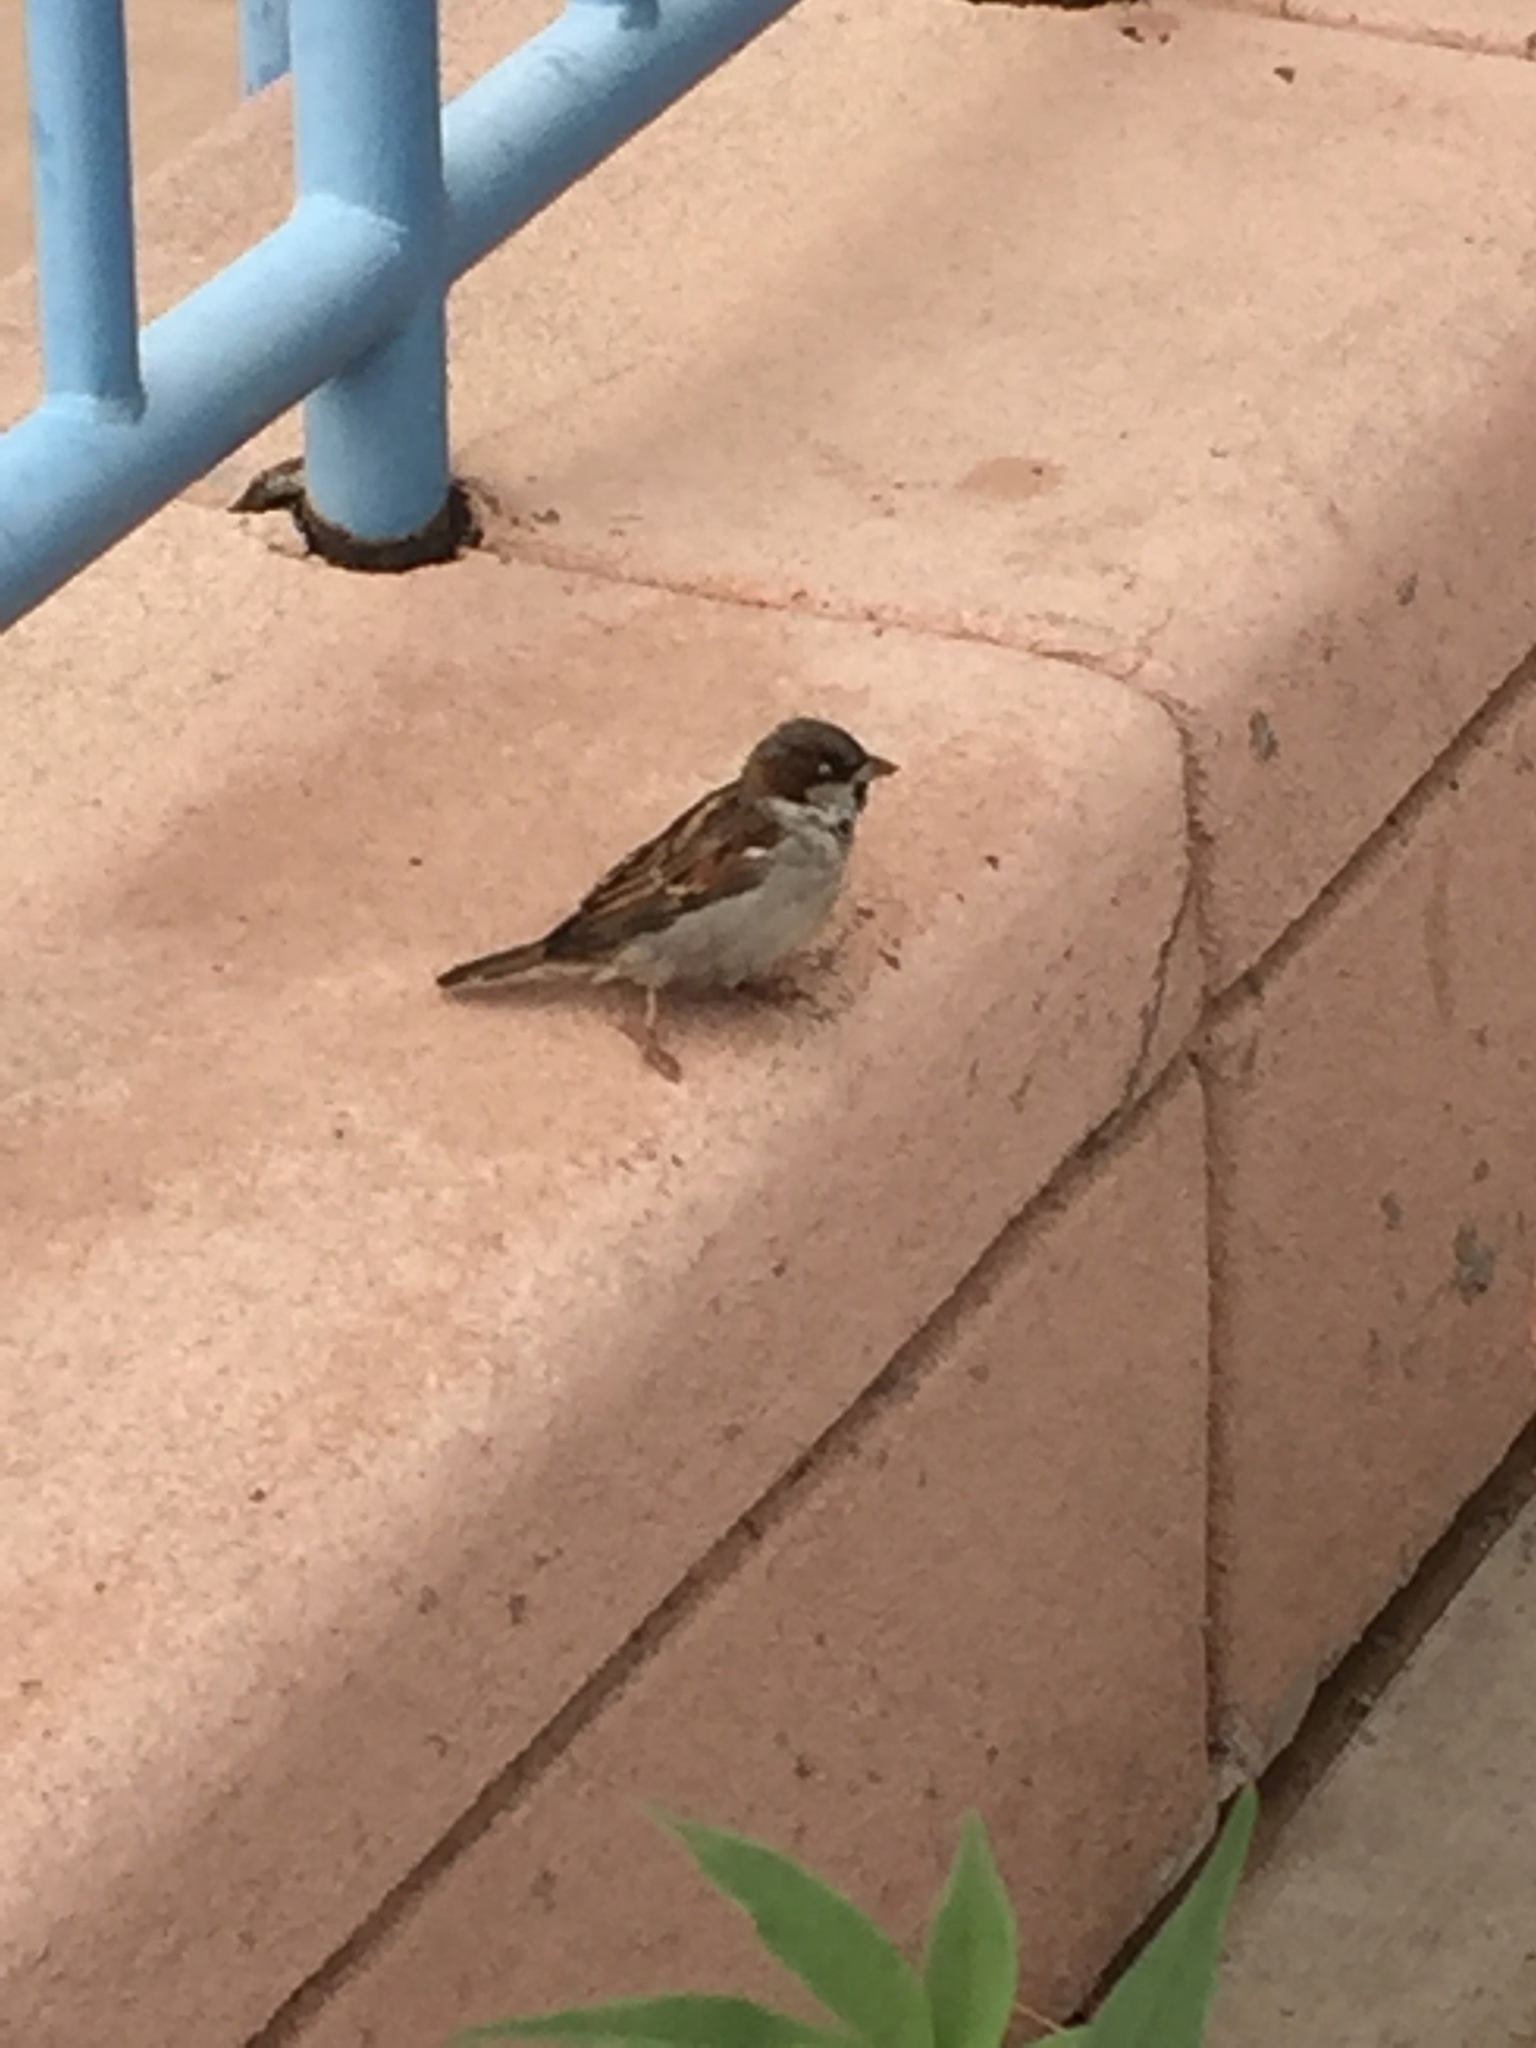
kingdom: Animalia
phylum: Chordata
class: Aves
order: Passeriformes
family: Passeridae
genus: Passer
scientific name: Passer domesticus
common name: House sparrow
